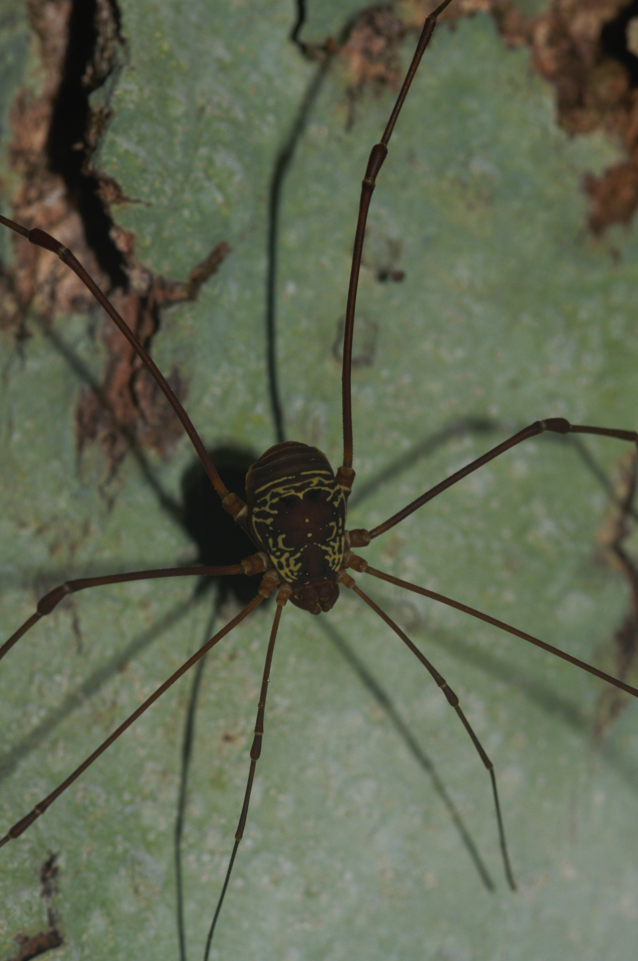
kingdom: Animalia
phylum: Arthropoda
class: Arachnida
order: Opiliones
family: Cosmetidae
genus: Paecilaema
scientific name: Paecilaema sigillatum
